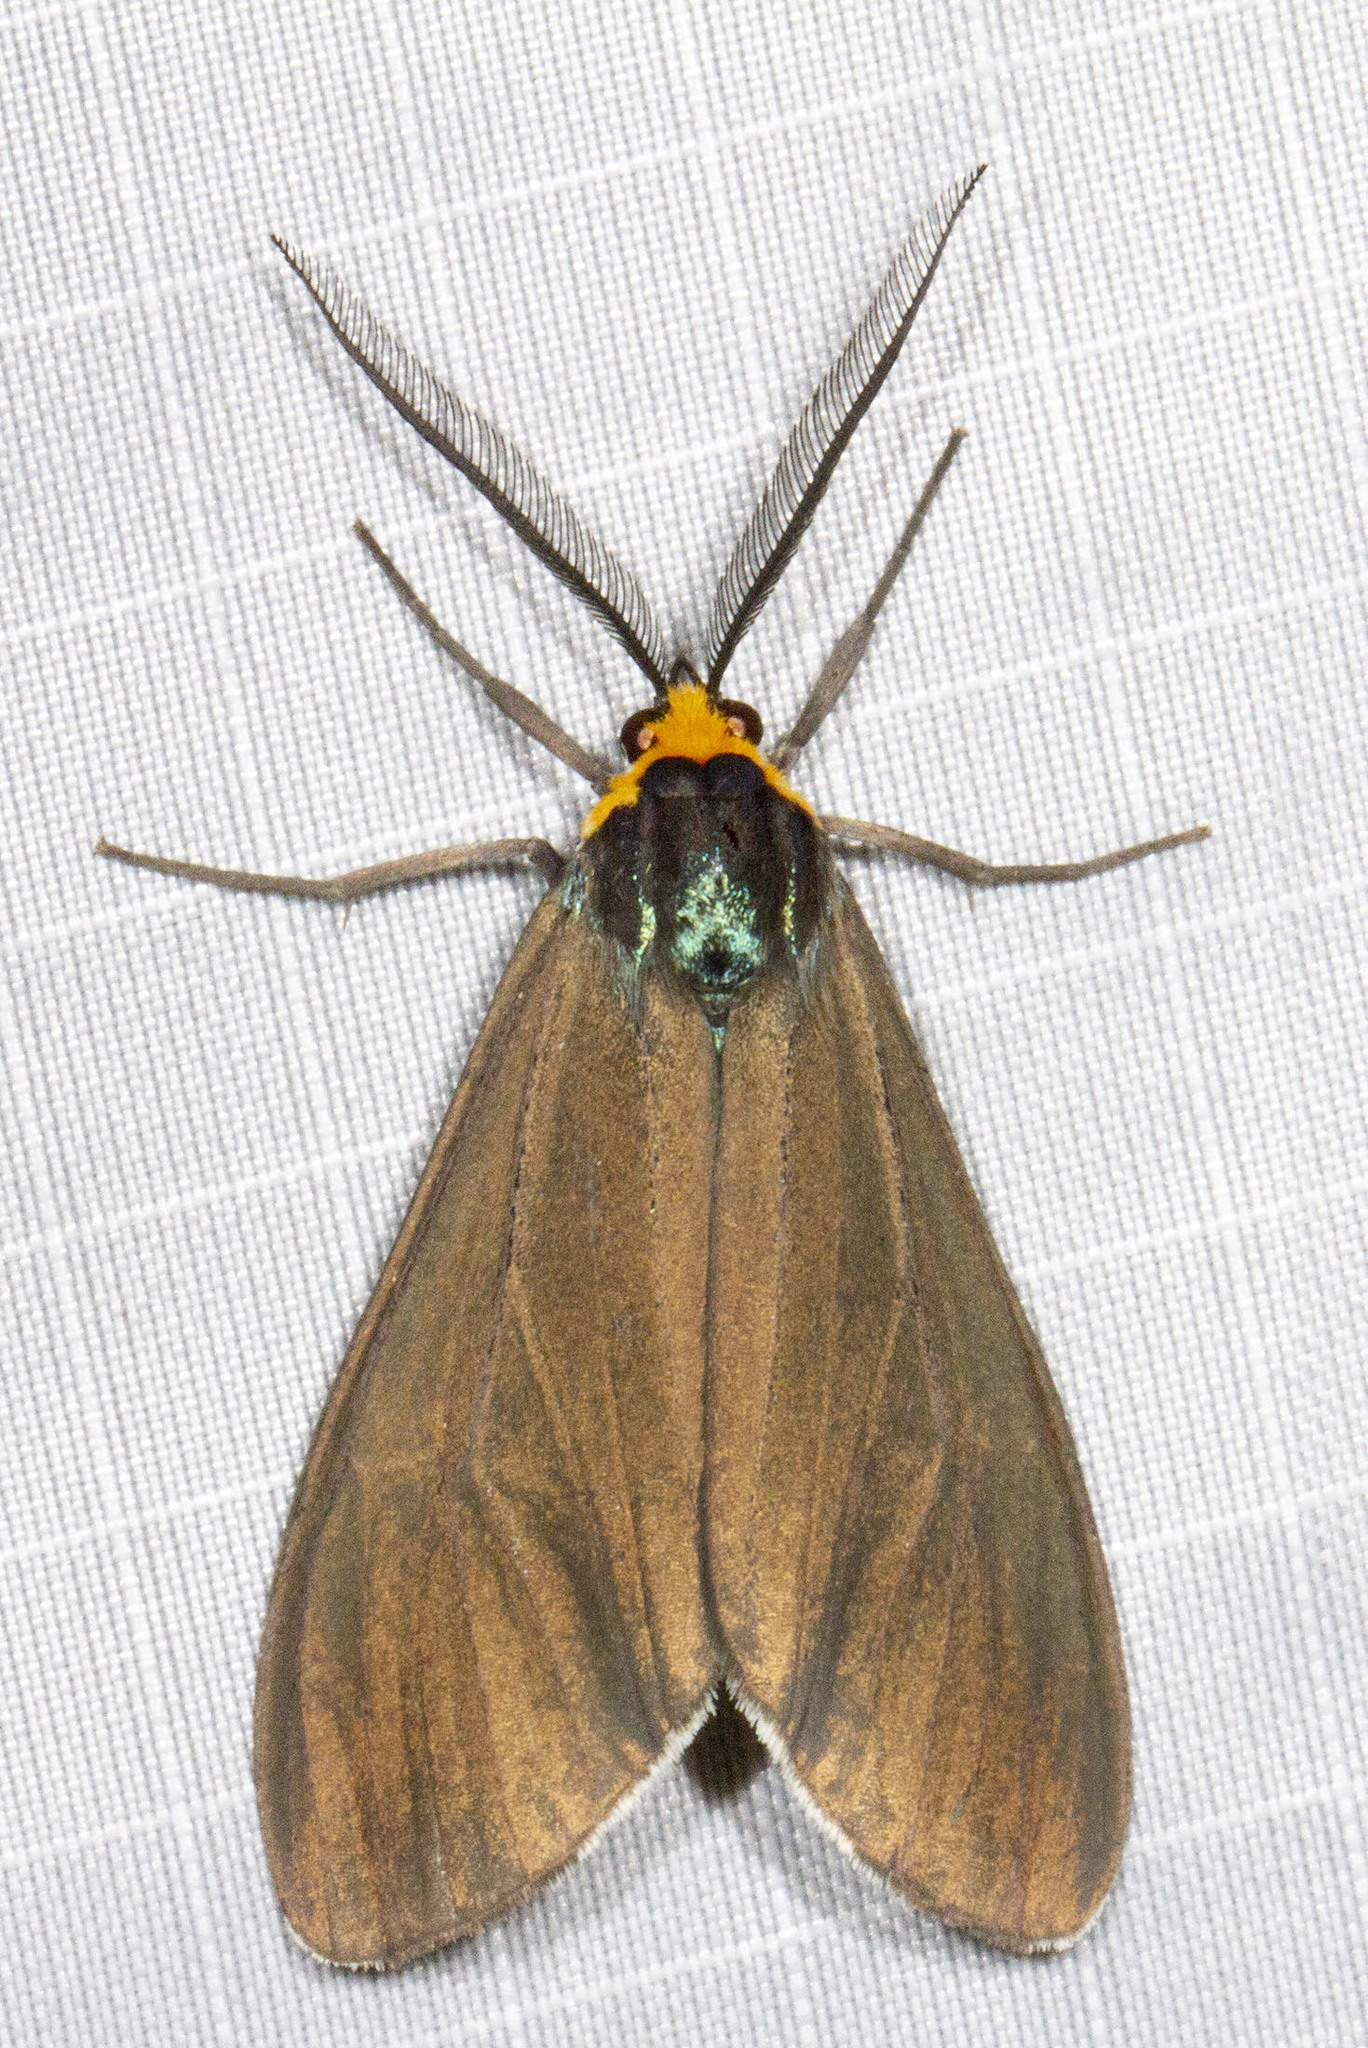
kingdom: Animalia
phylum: Arthropoda
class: Insecta
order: Lepidoptera
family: Erebidae
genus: Ctenucha
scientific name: Ctenucha virginica
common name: Virginia ctenucha moth
